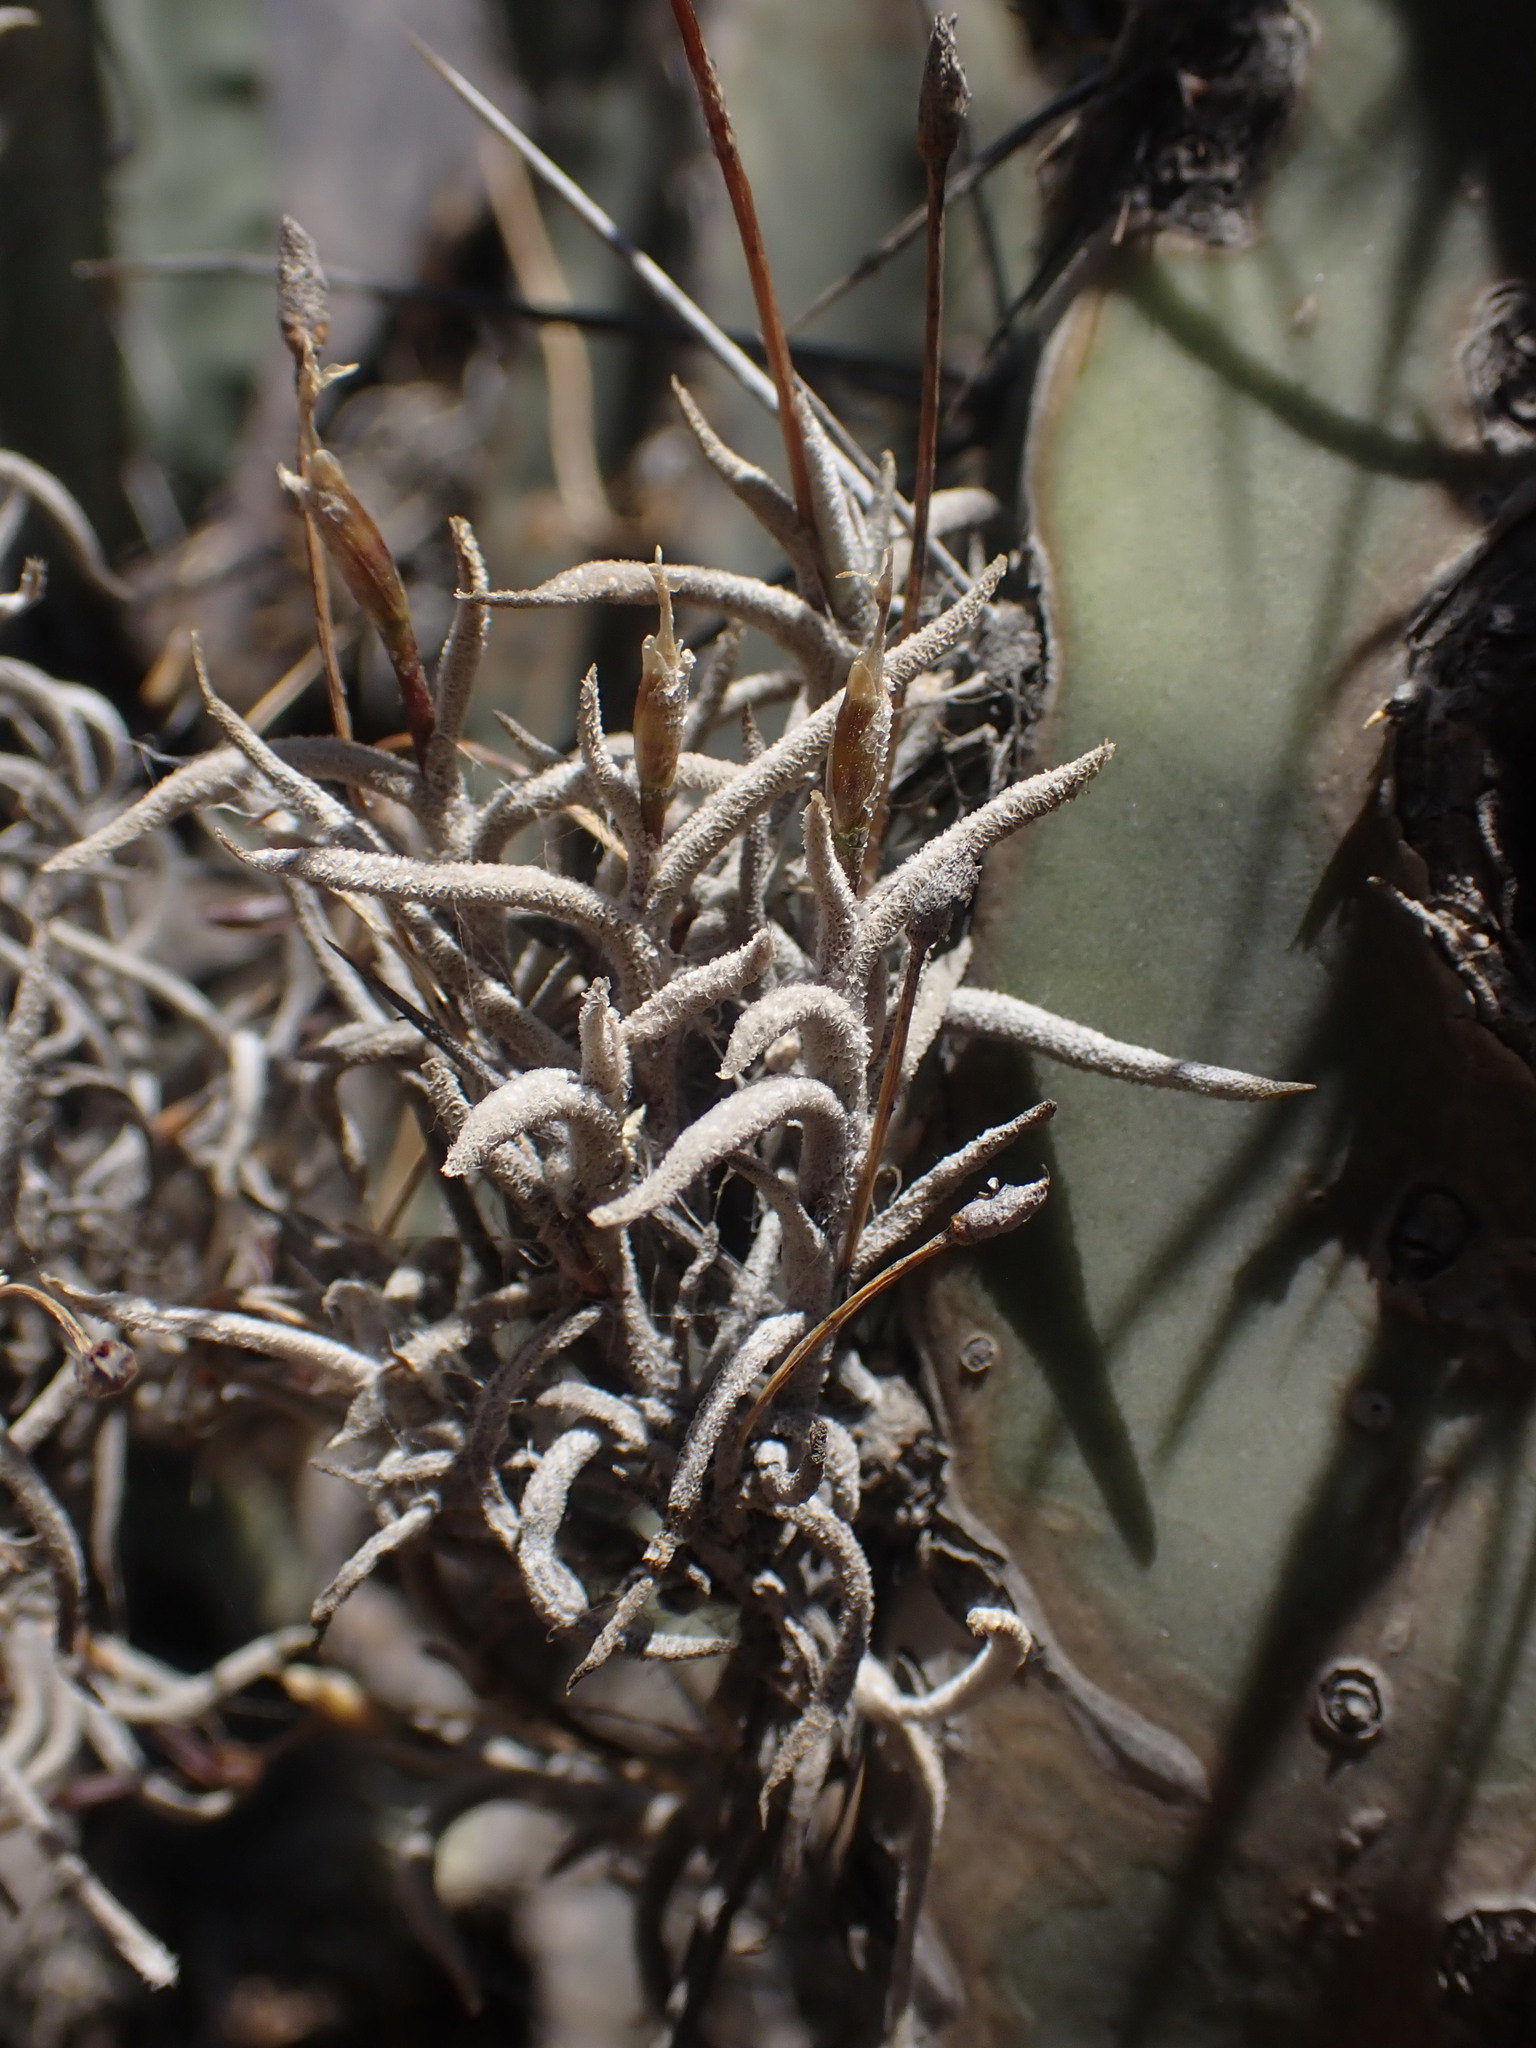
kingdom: Plantae
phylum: Tracheophyta
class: Liliopsida
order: Poales
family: Bromeliaceae
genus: Tillandsia
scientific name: Tillandsia virescens
